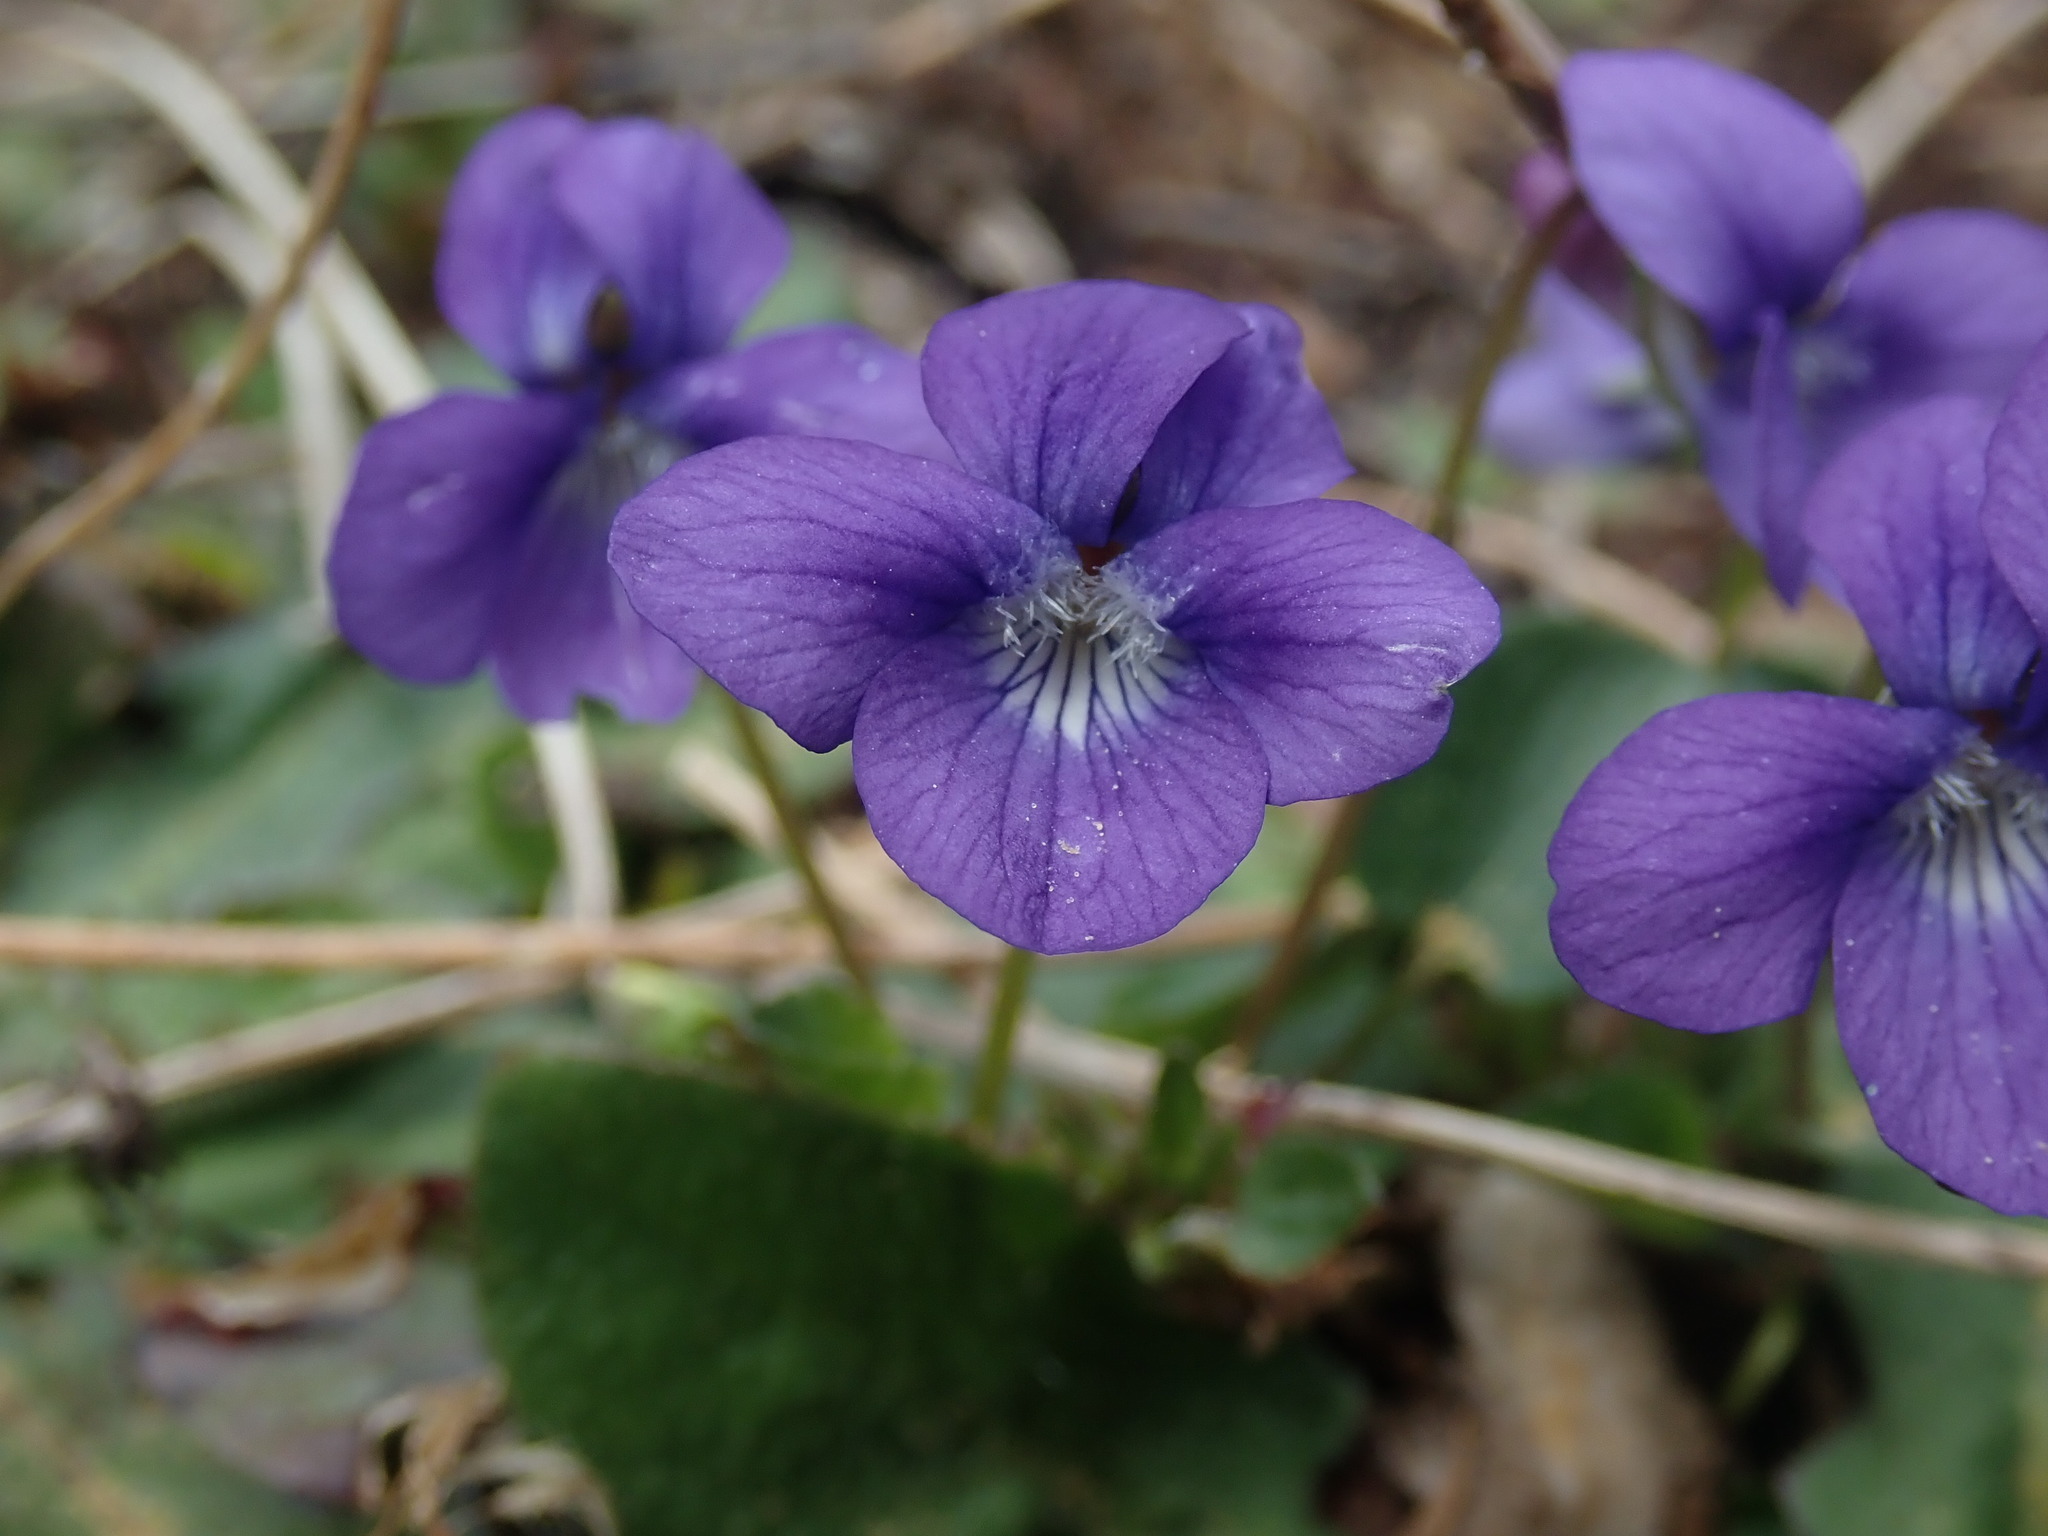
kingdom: Plantae
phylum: Tracheophyta
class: Magnoliopsida
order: Malpighiales
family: Violaceae
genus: Viola
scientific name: Viola adunca
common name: Sand violet
